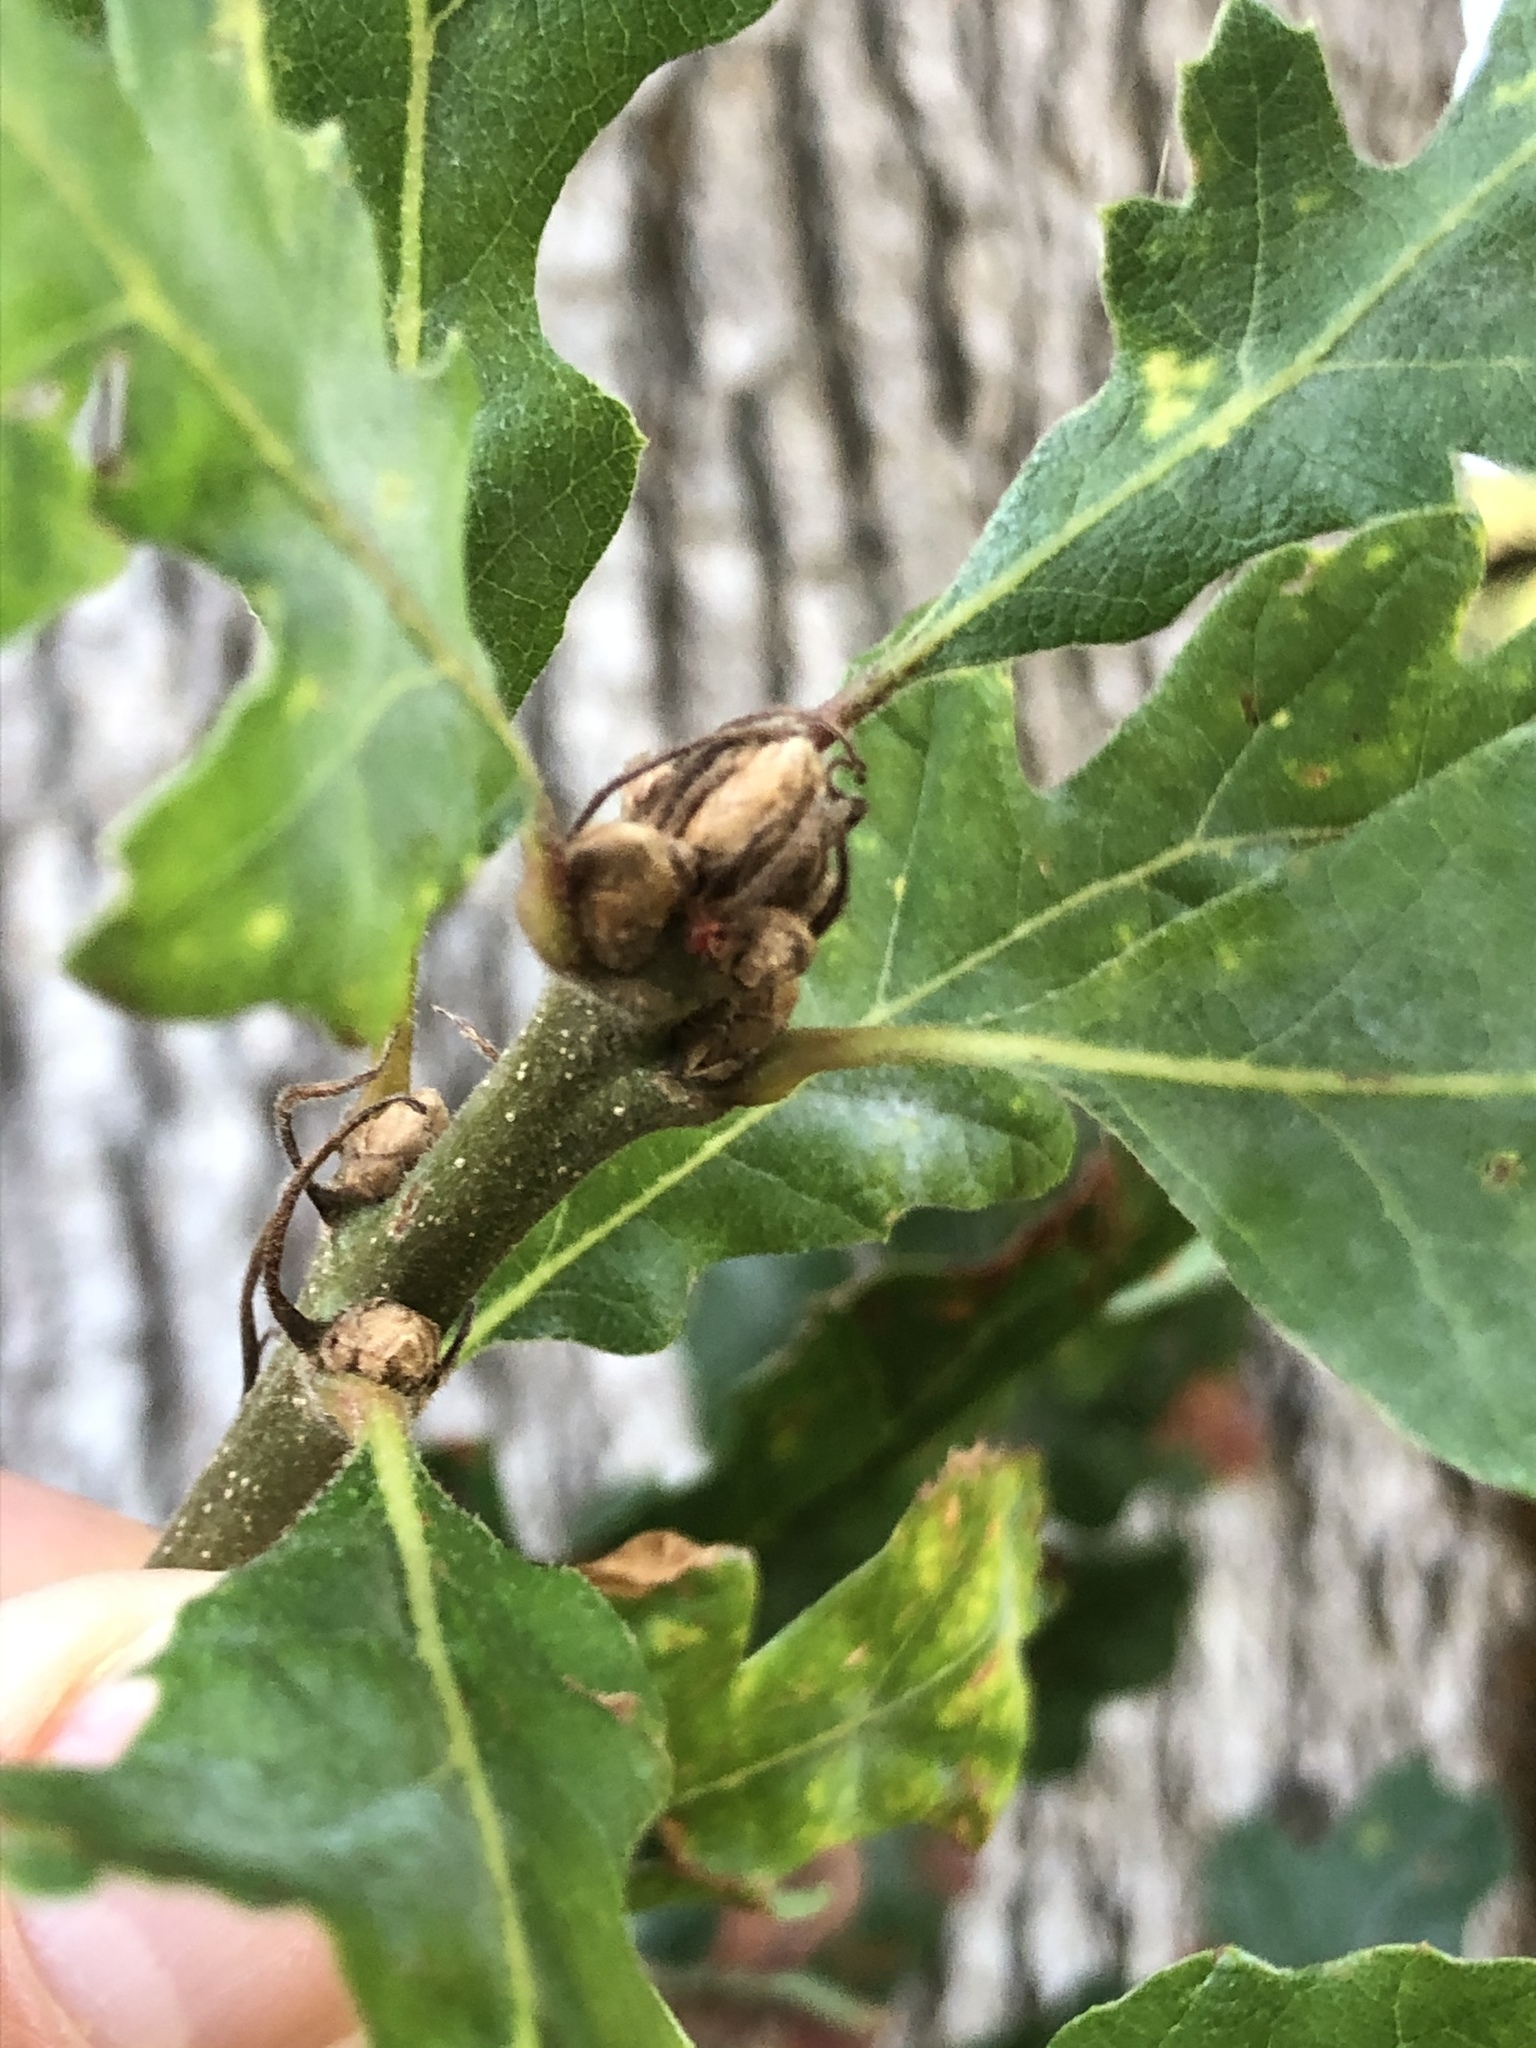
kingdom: Plantae
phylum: Tracheophyta
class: Magnoliopsida
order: Fagales
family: Fagaceae
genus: Quercus
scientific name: Quercus garryana
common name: Garry oak
